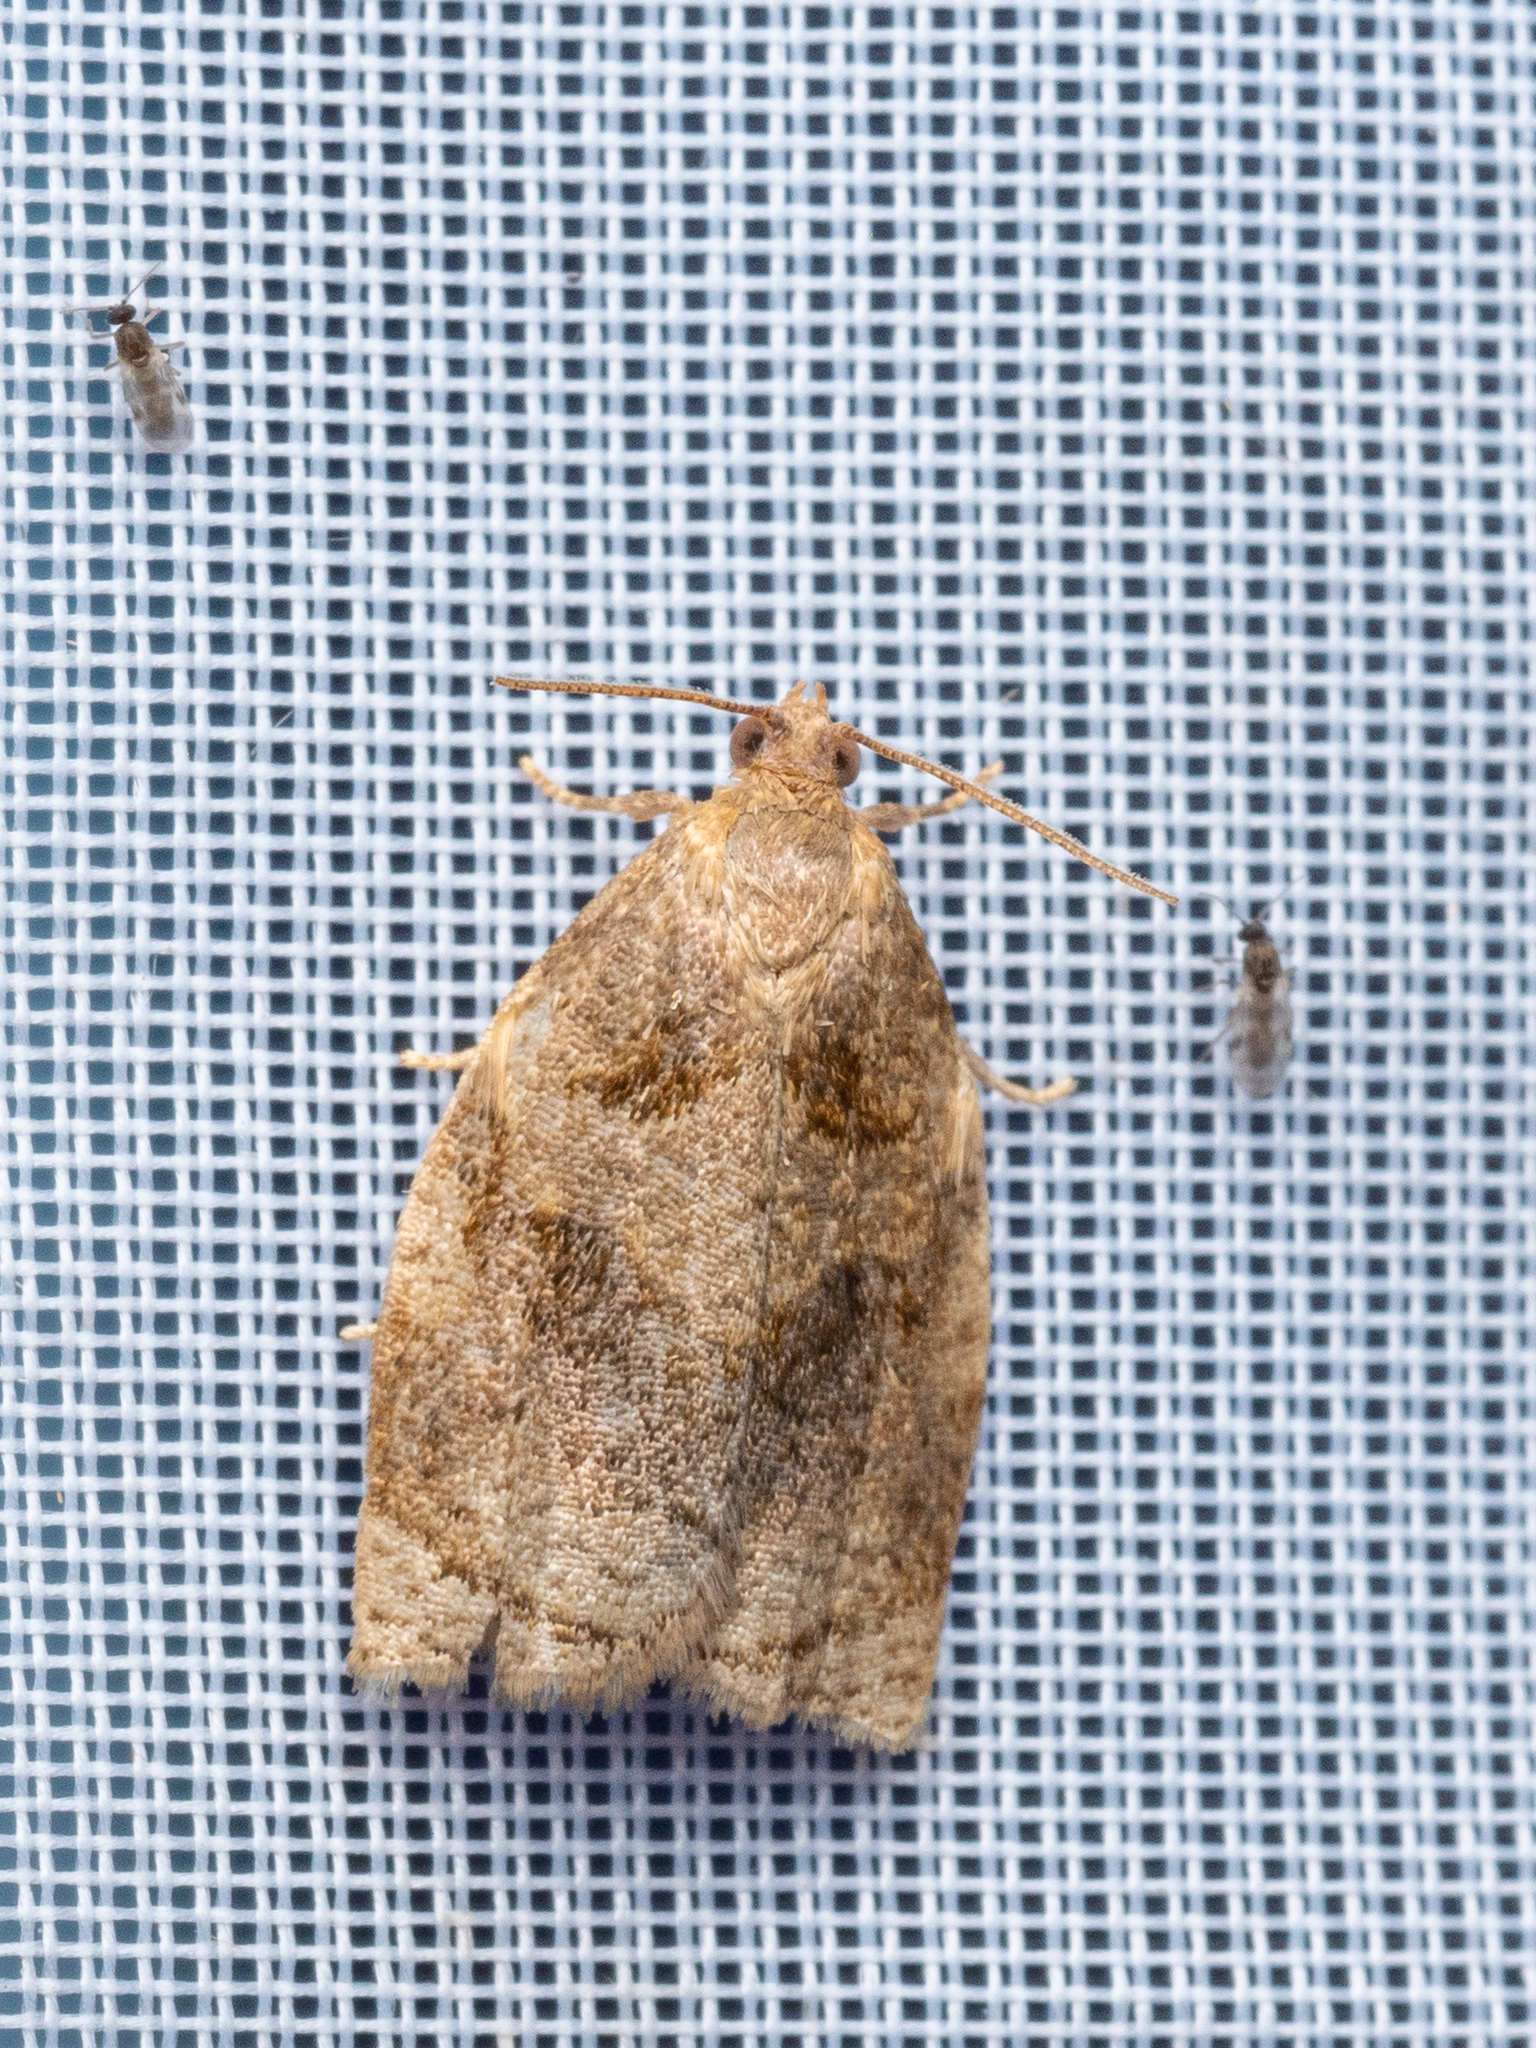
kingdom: Animalia
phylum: Arthropoda
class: Insecta
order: Lepidoptera
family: Tortricidae
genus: Archips
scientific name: Archips rosana
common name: Rose tortrix
